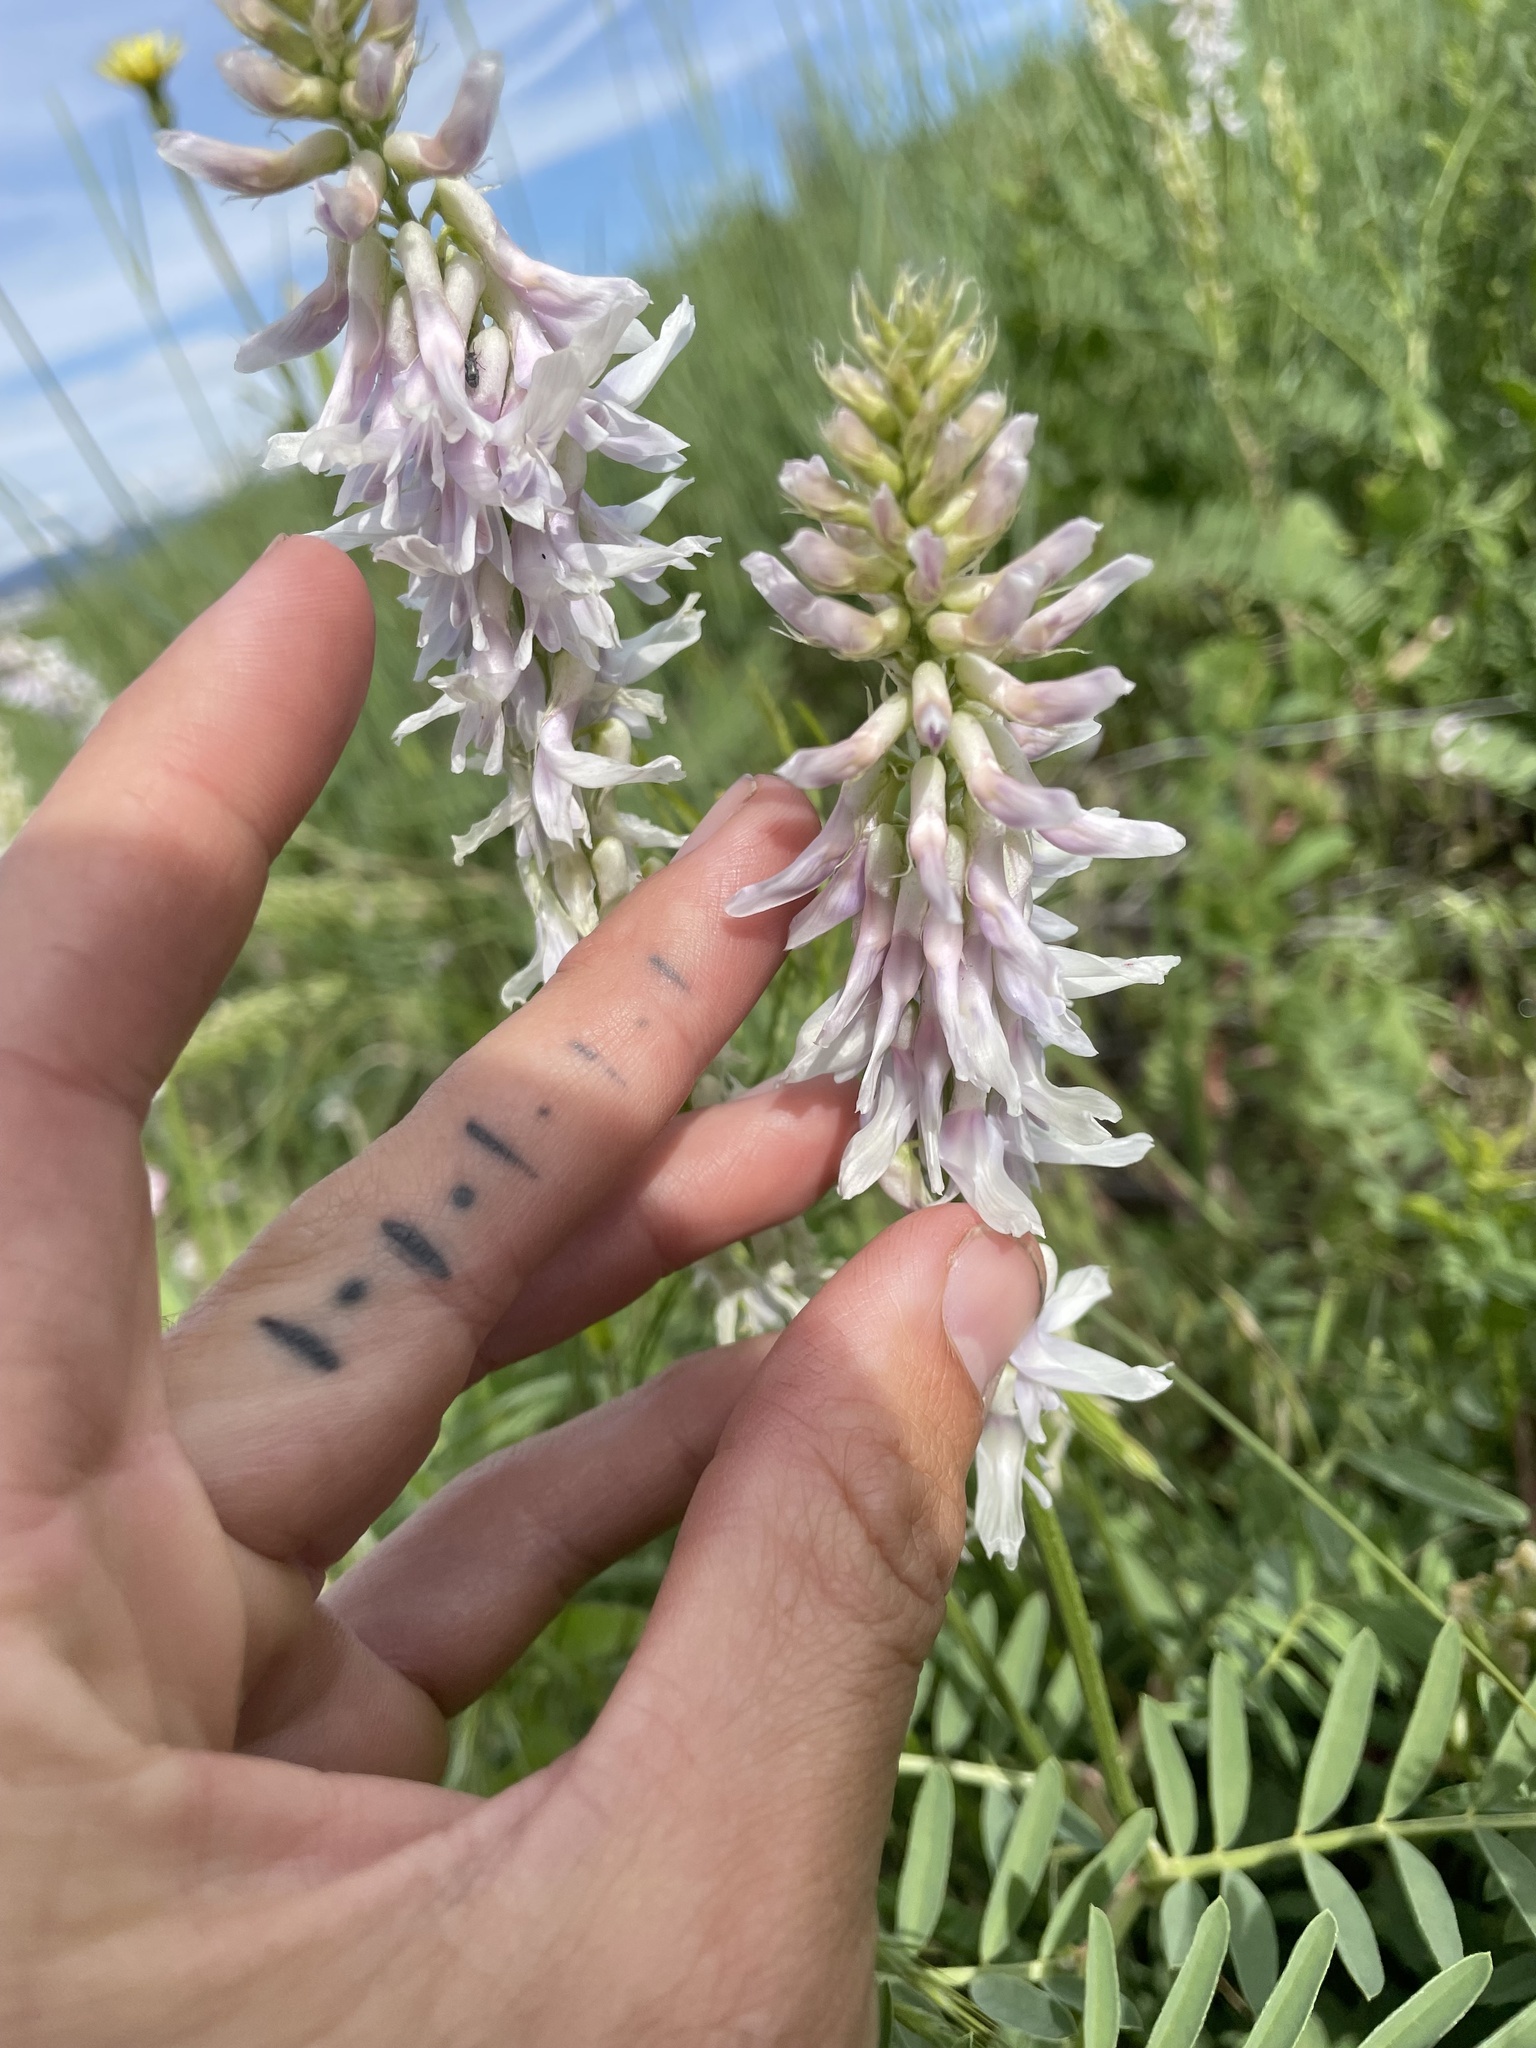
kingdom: Plantae
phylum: Tracheophyta
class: Magnoliopsida
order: Fabales
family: Fabaceae
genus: Astragalus
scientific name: Astragalus bisulcatus
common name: Two-groove milk-vetch
